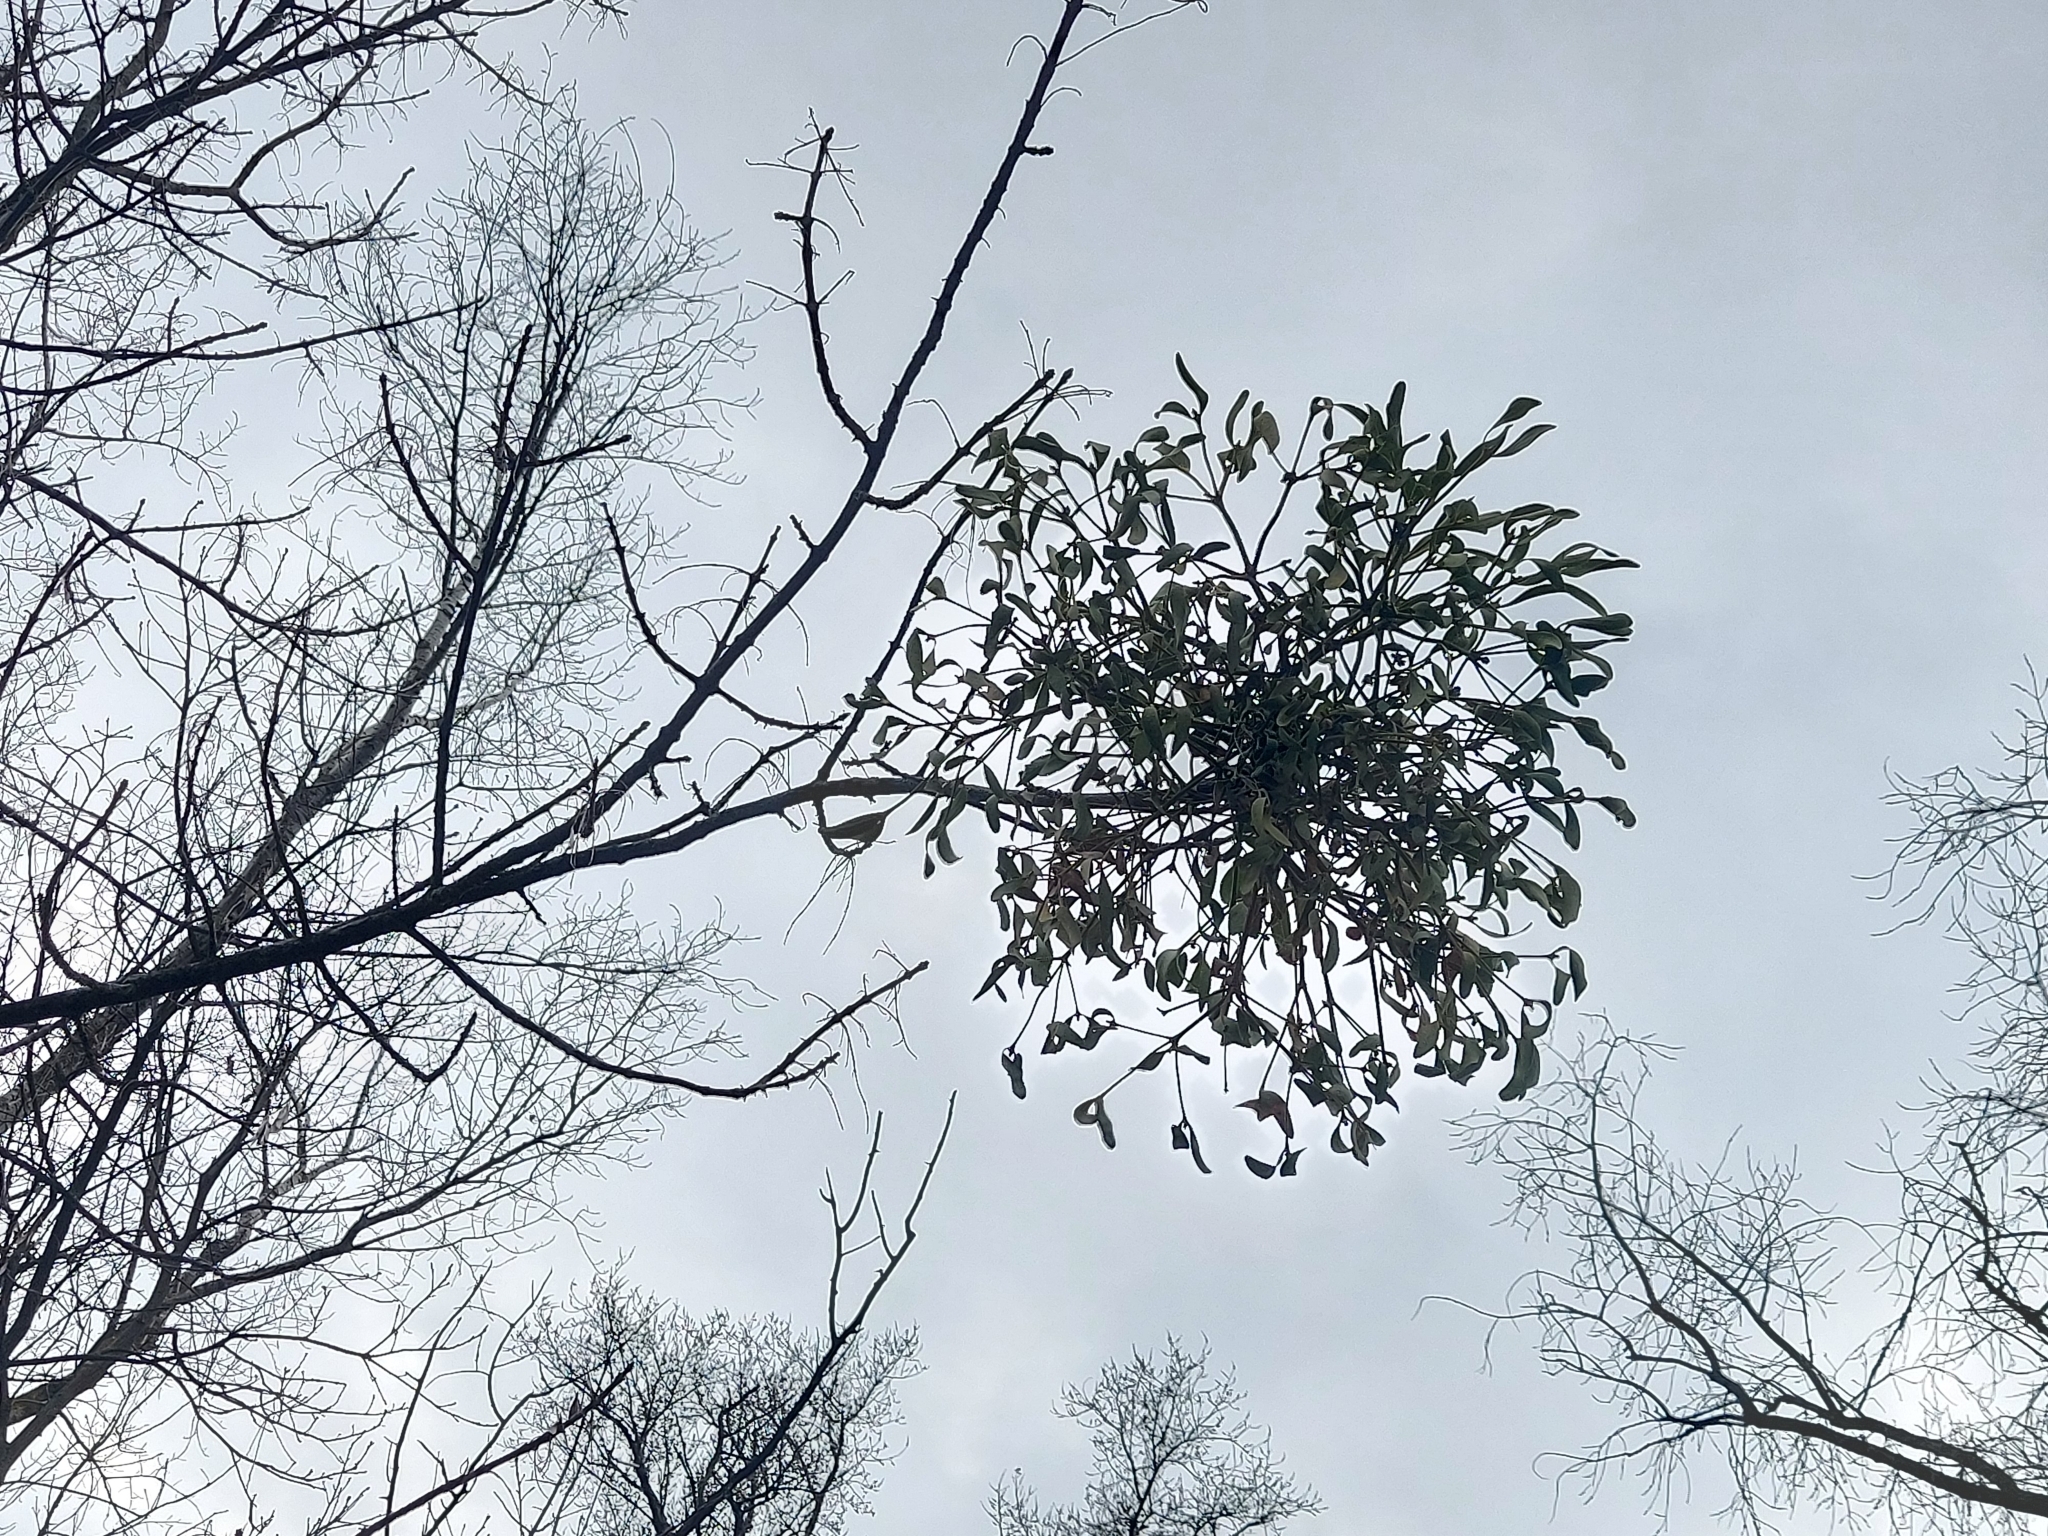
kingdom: Plantae
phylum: Tracheophyta
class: Magnoliopsida
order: Santalales
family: Viscaceae
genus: Viscum
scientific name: Viscum album
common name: Mistletoe
